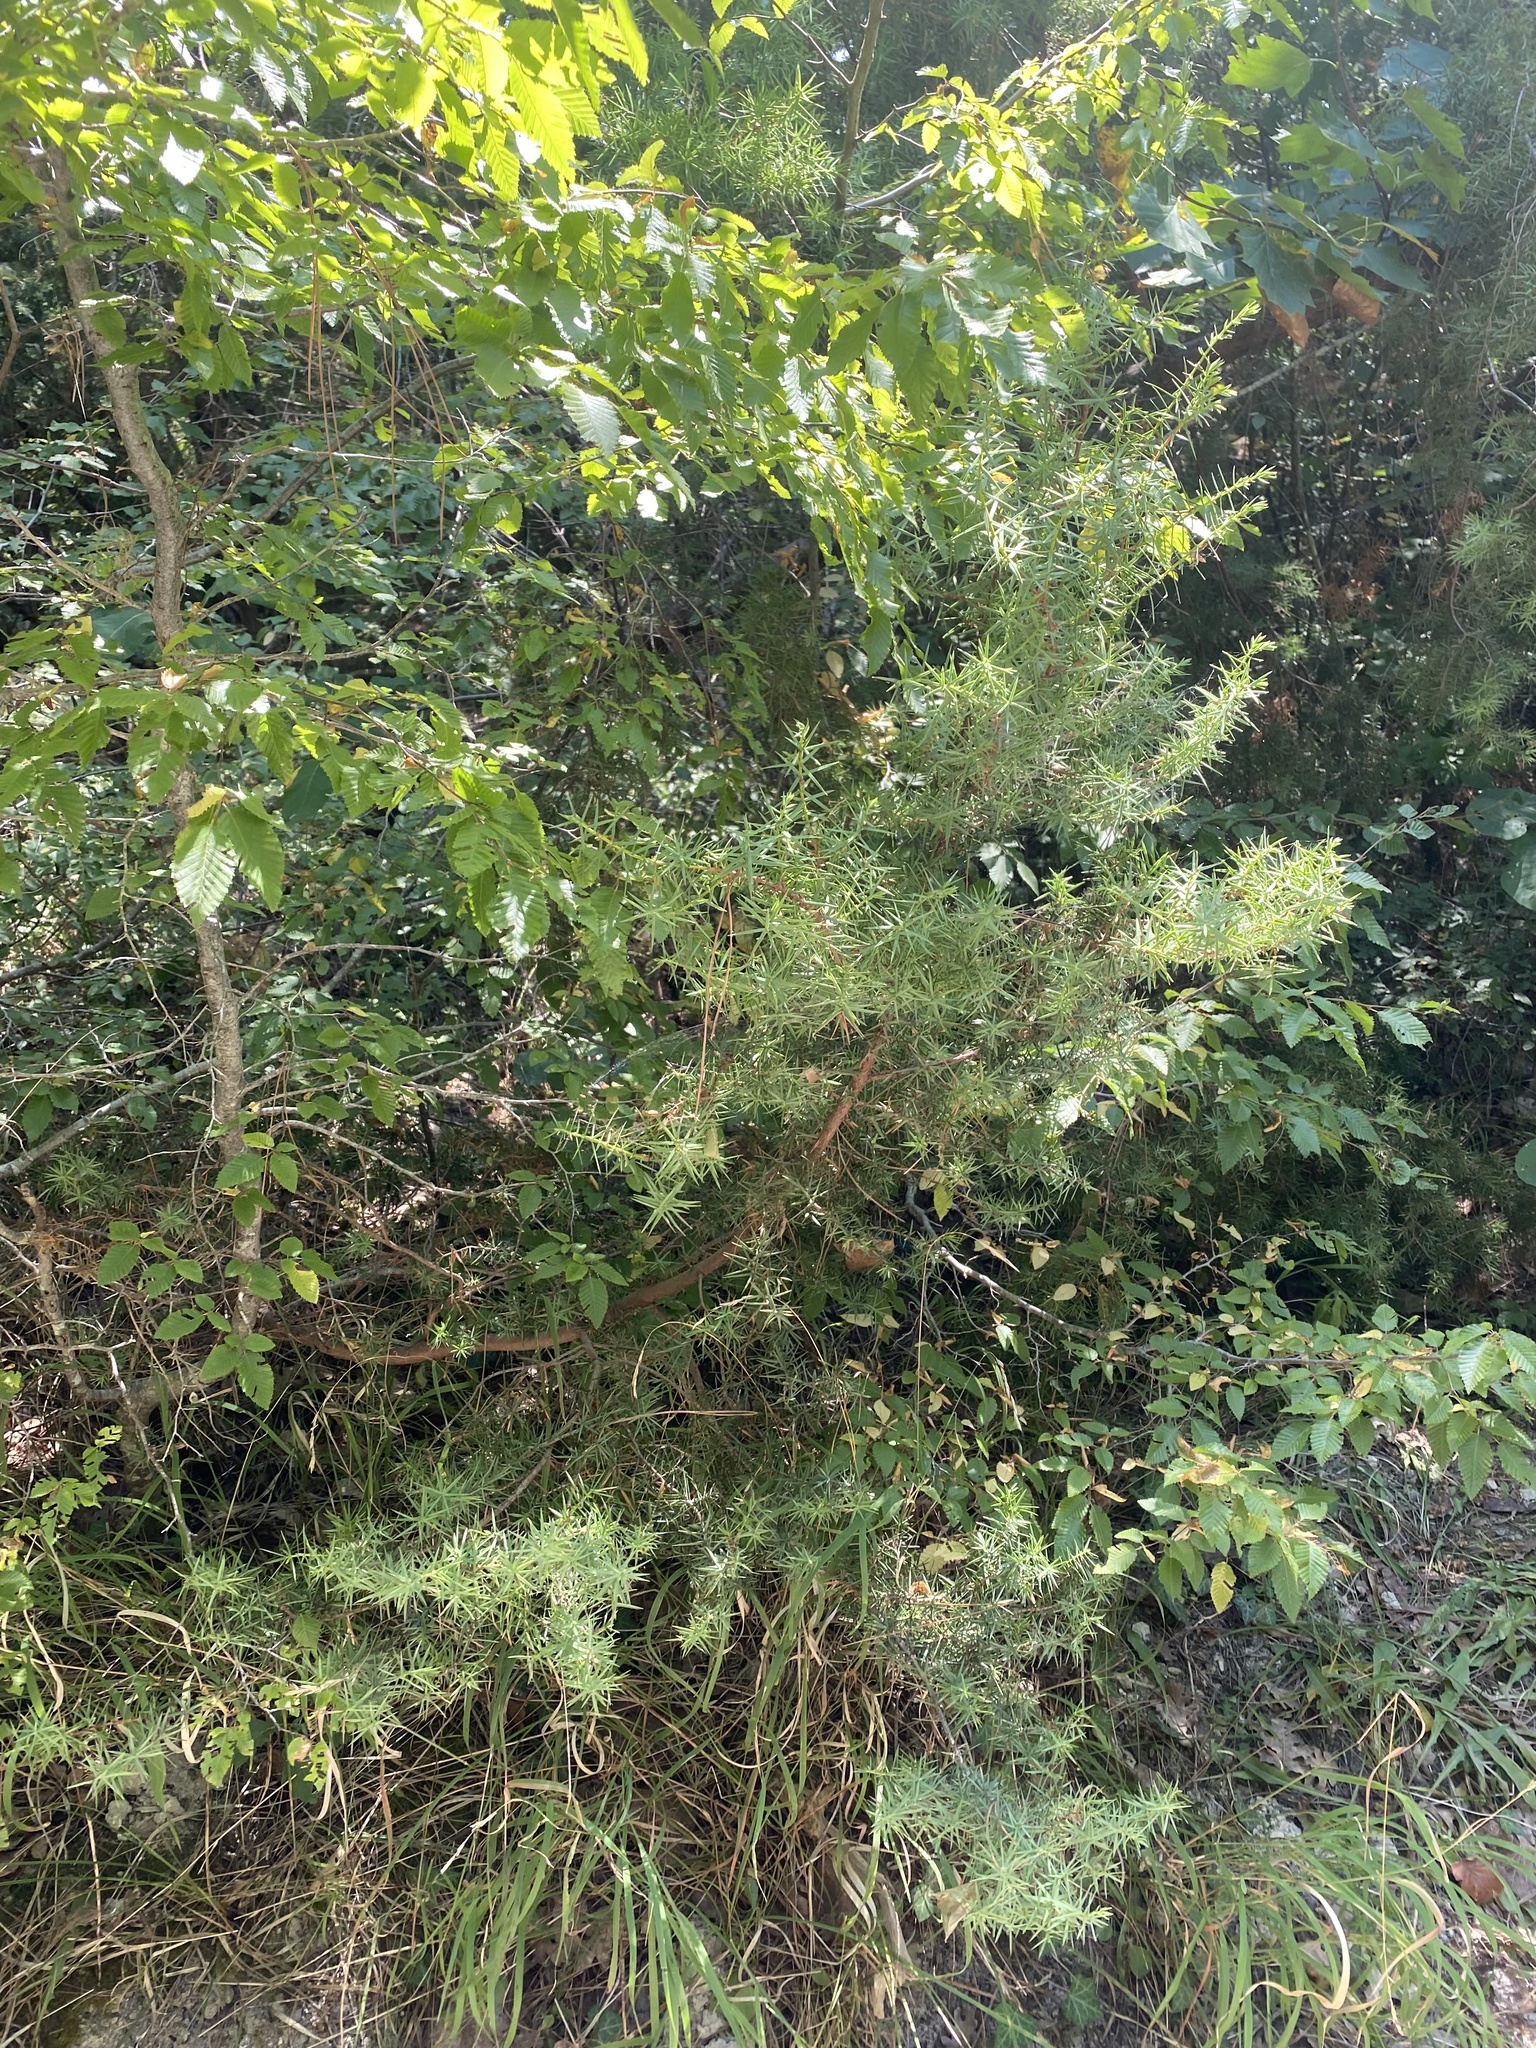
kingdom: Plantae
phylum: Tracheophyta
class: Pinopsida
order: Pinales
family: Cupressaceae
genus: Juniperus
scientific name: Juniperus oxycedrus
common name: Prickly juniper
